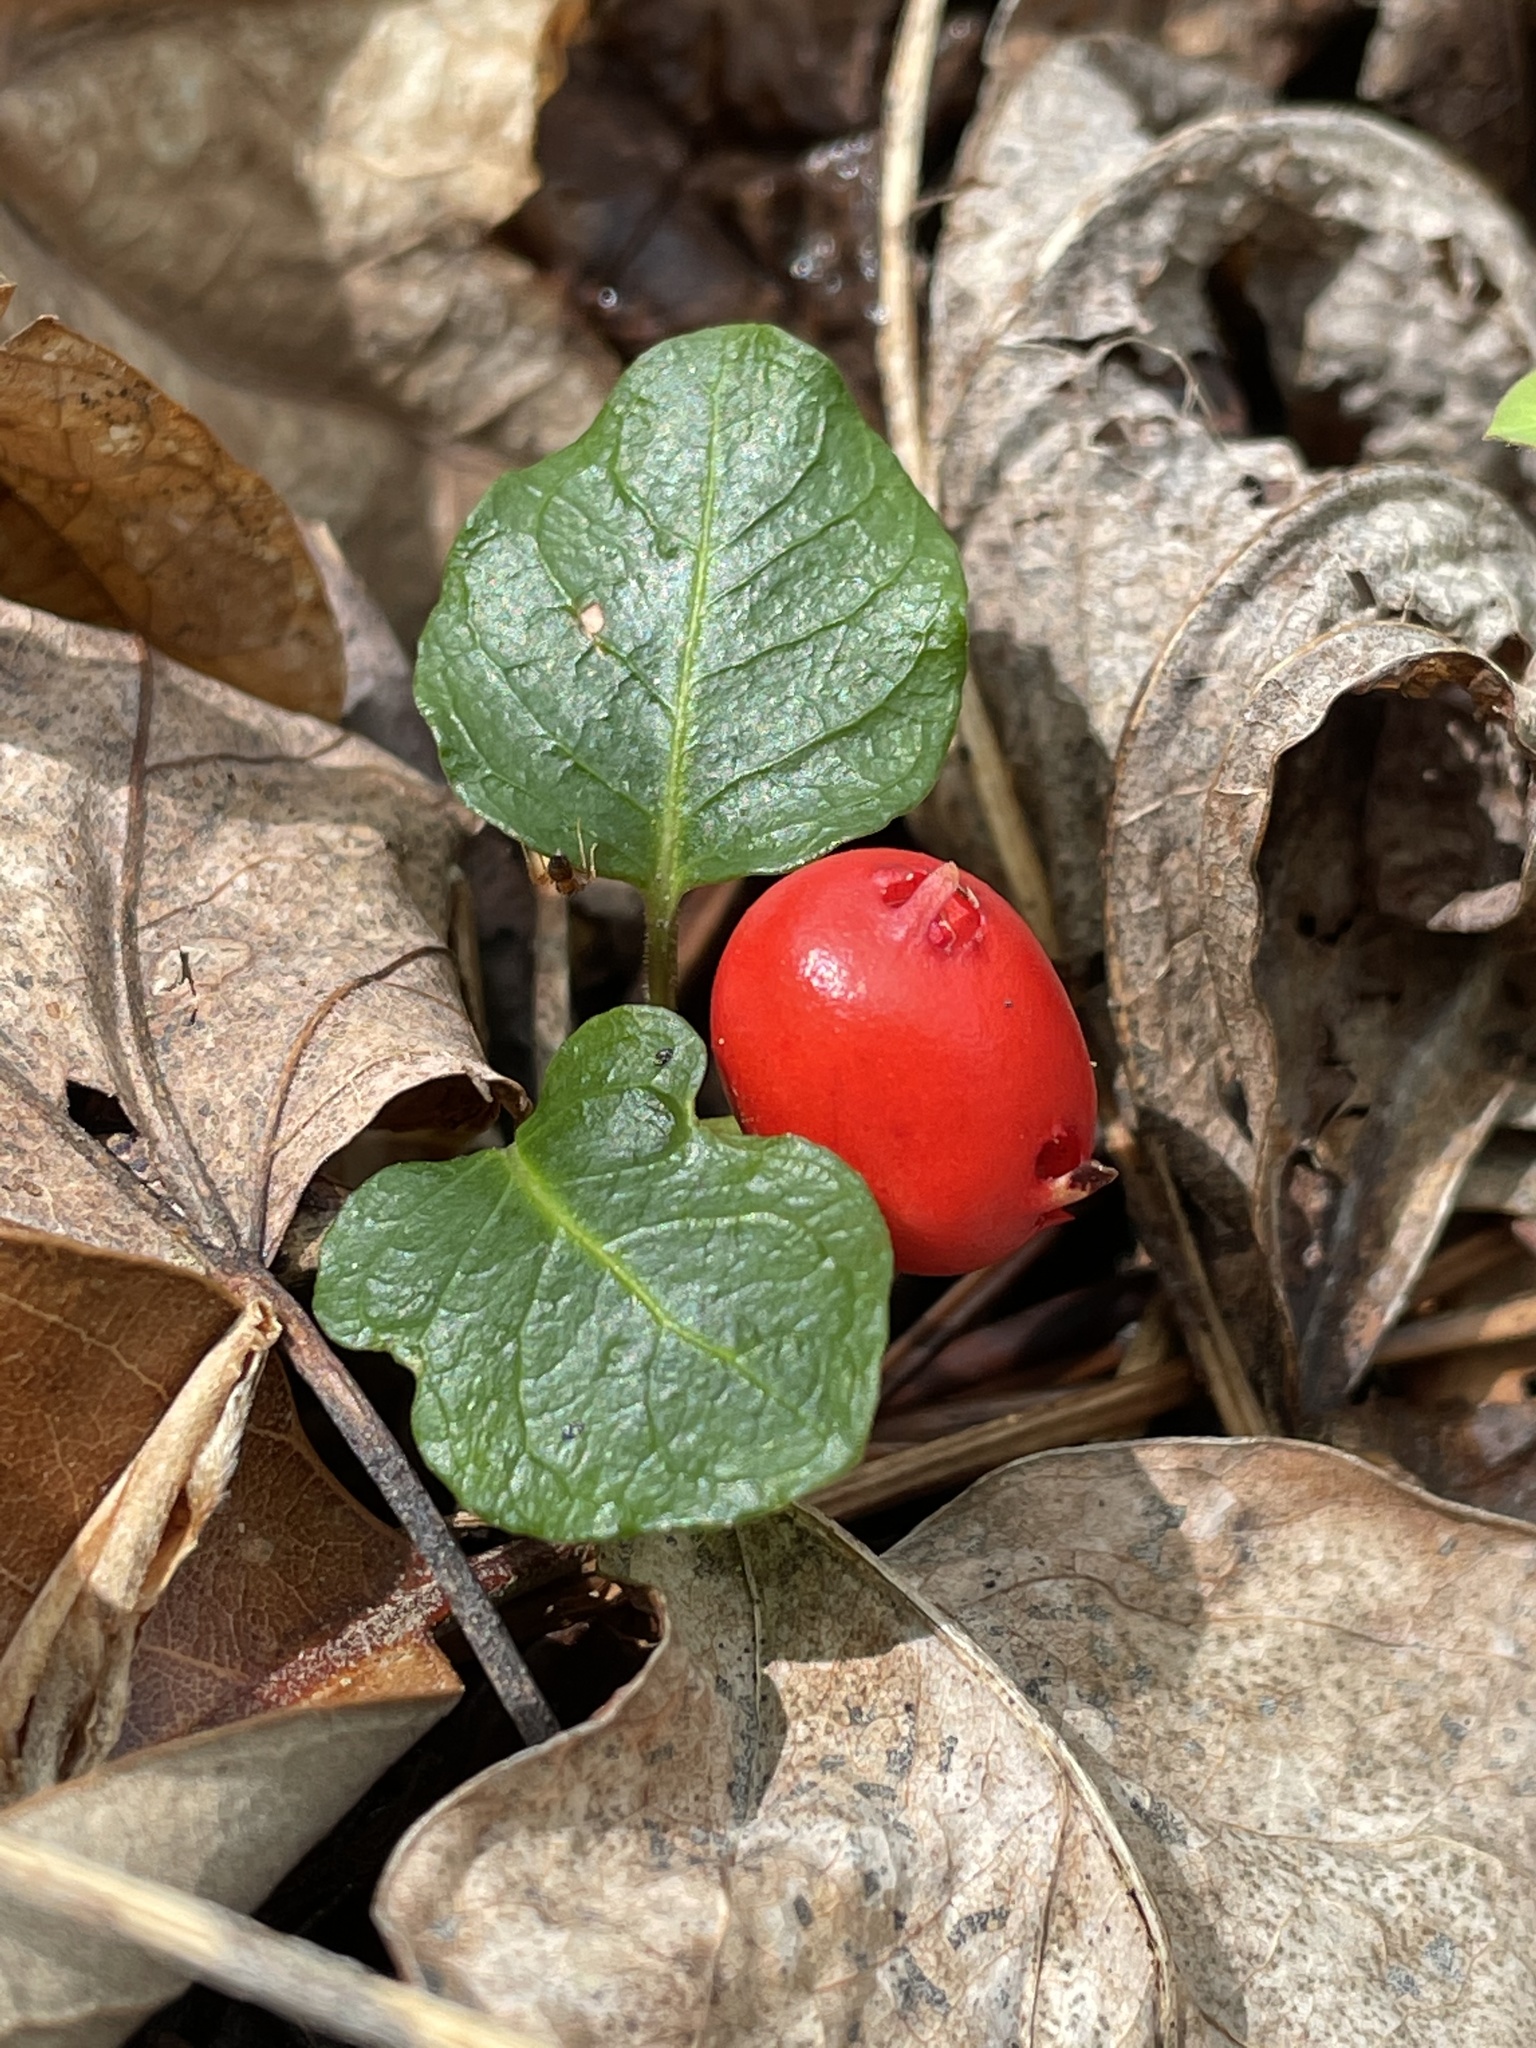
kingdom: Plantae
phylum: Tracheophyta
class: Magnoliopsida
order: Gentianales
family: Rubiaceae
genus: Mitchella
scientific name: Mitchella repens
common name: Partridge-berry
